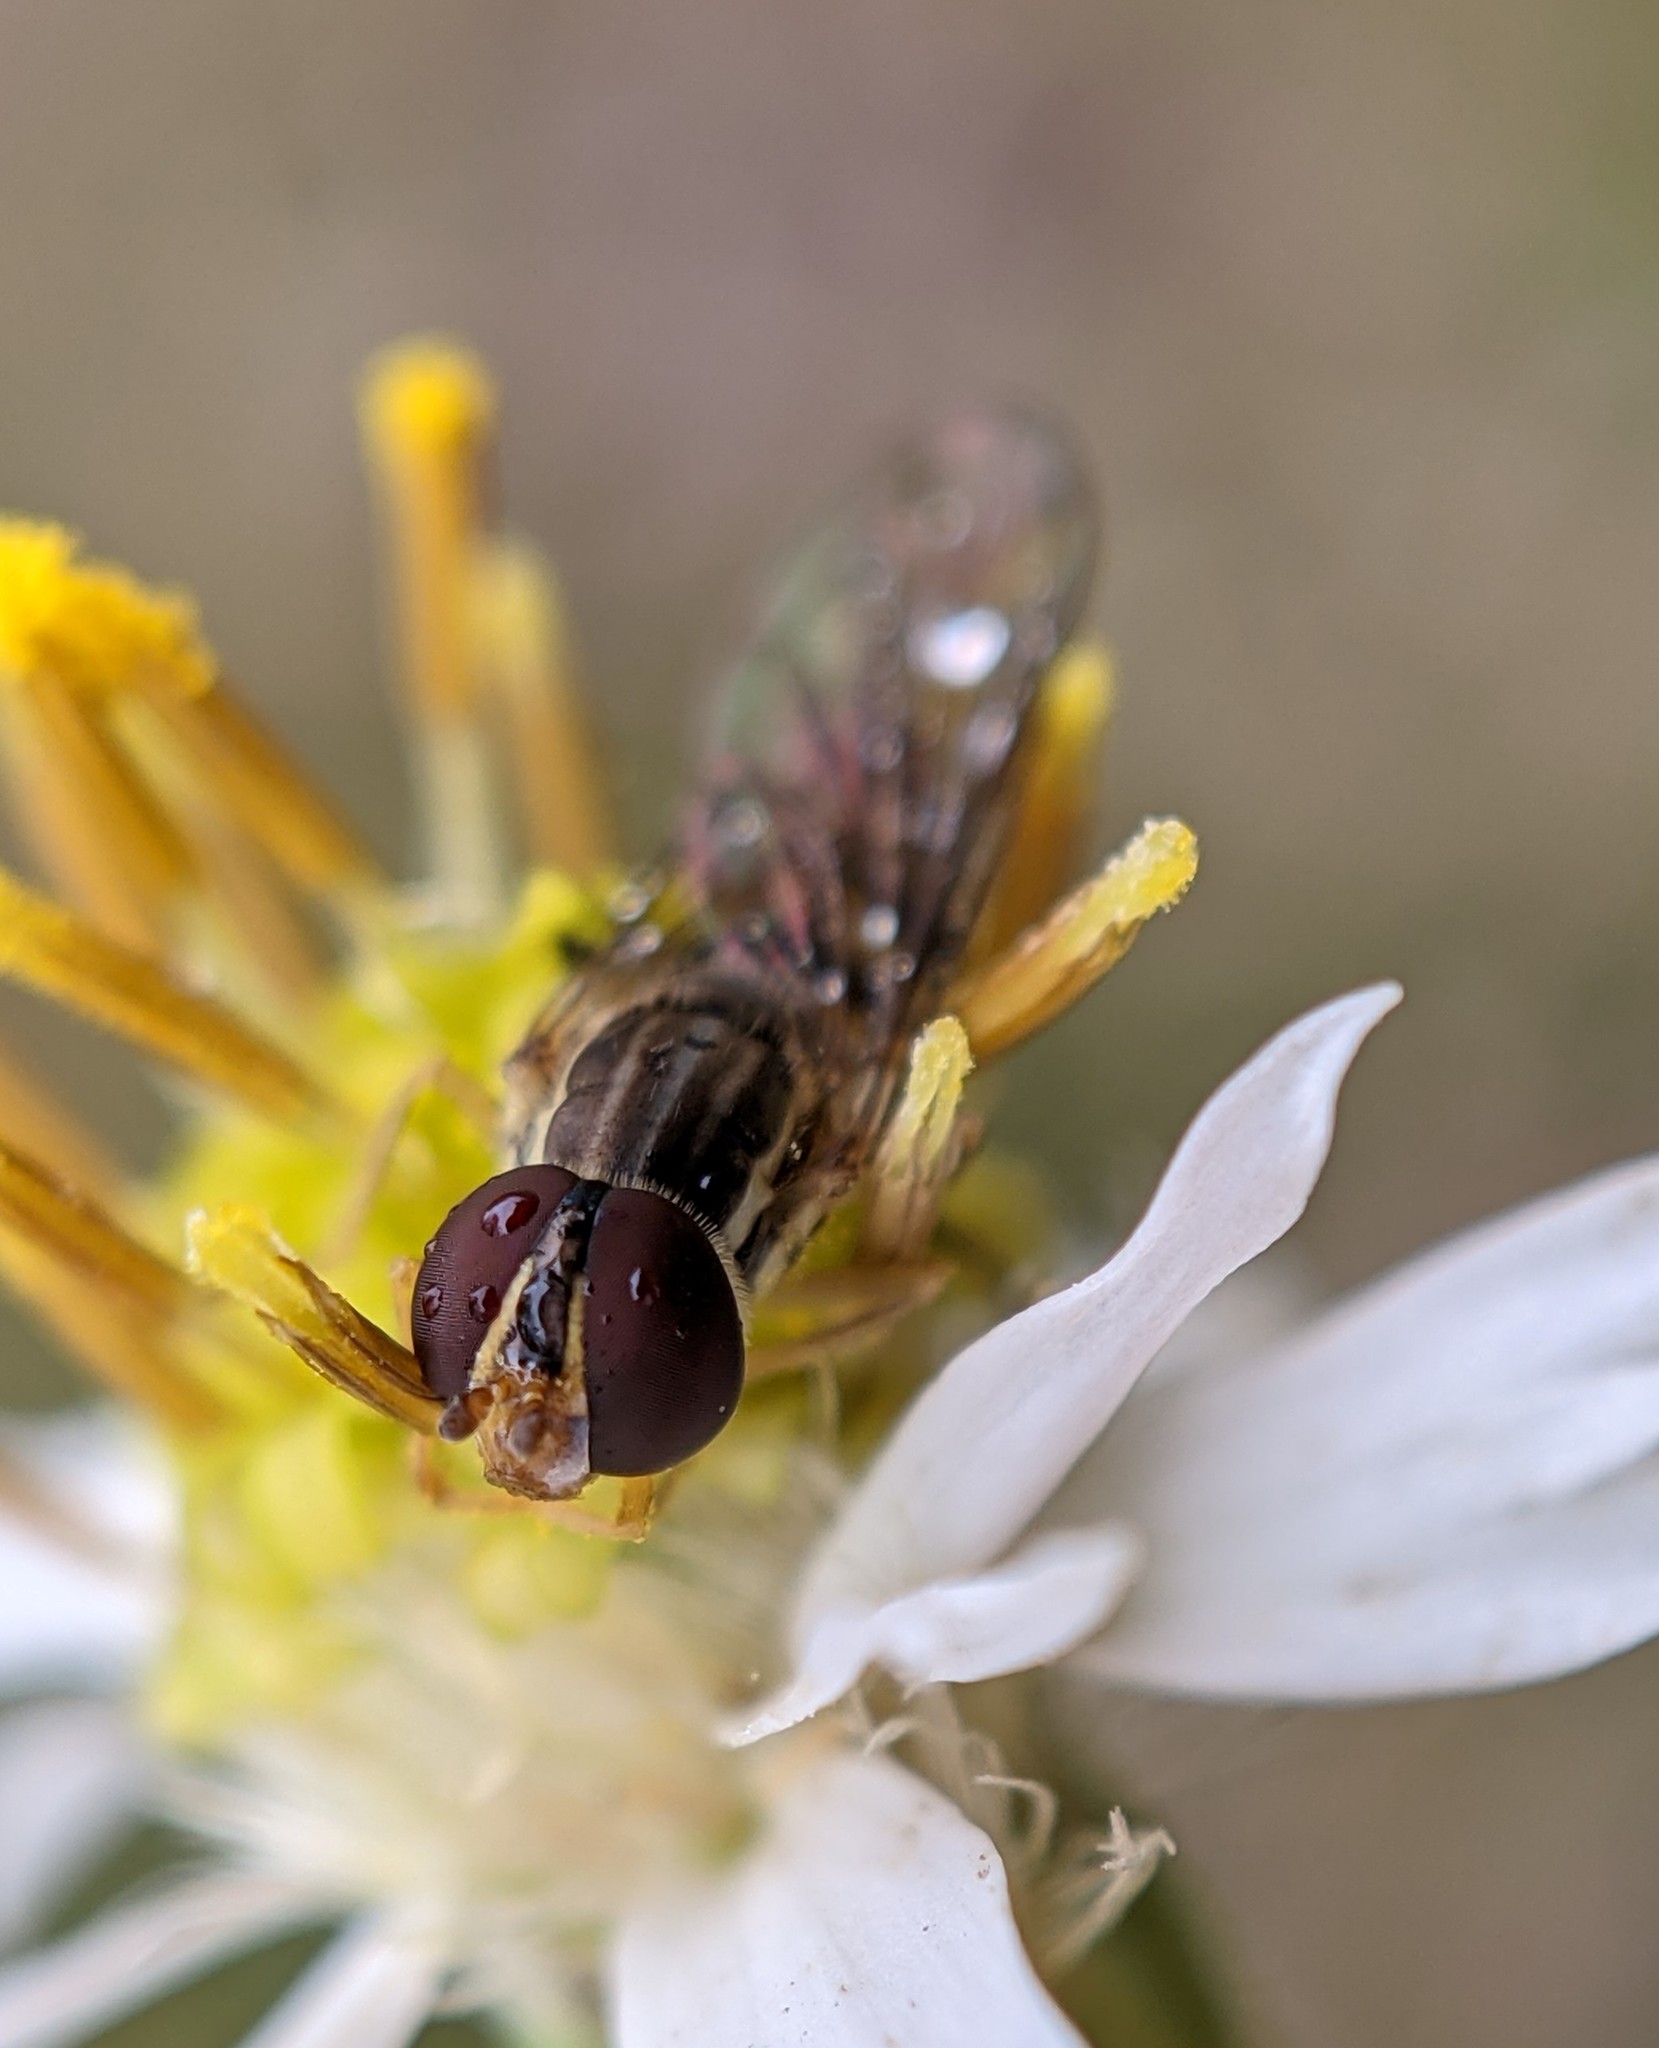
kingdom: Animalia
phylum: Arthropoda
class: Insecta
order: Diptera
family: Syrphidae
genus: Toxomerus
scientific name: Toxomerus geminatus
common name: Eastern calligrapher
